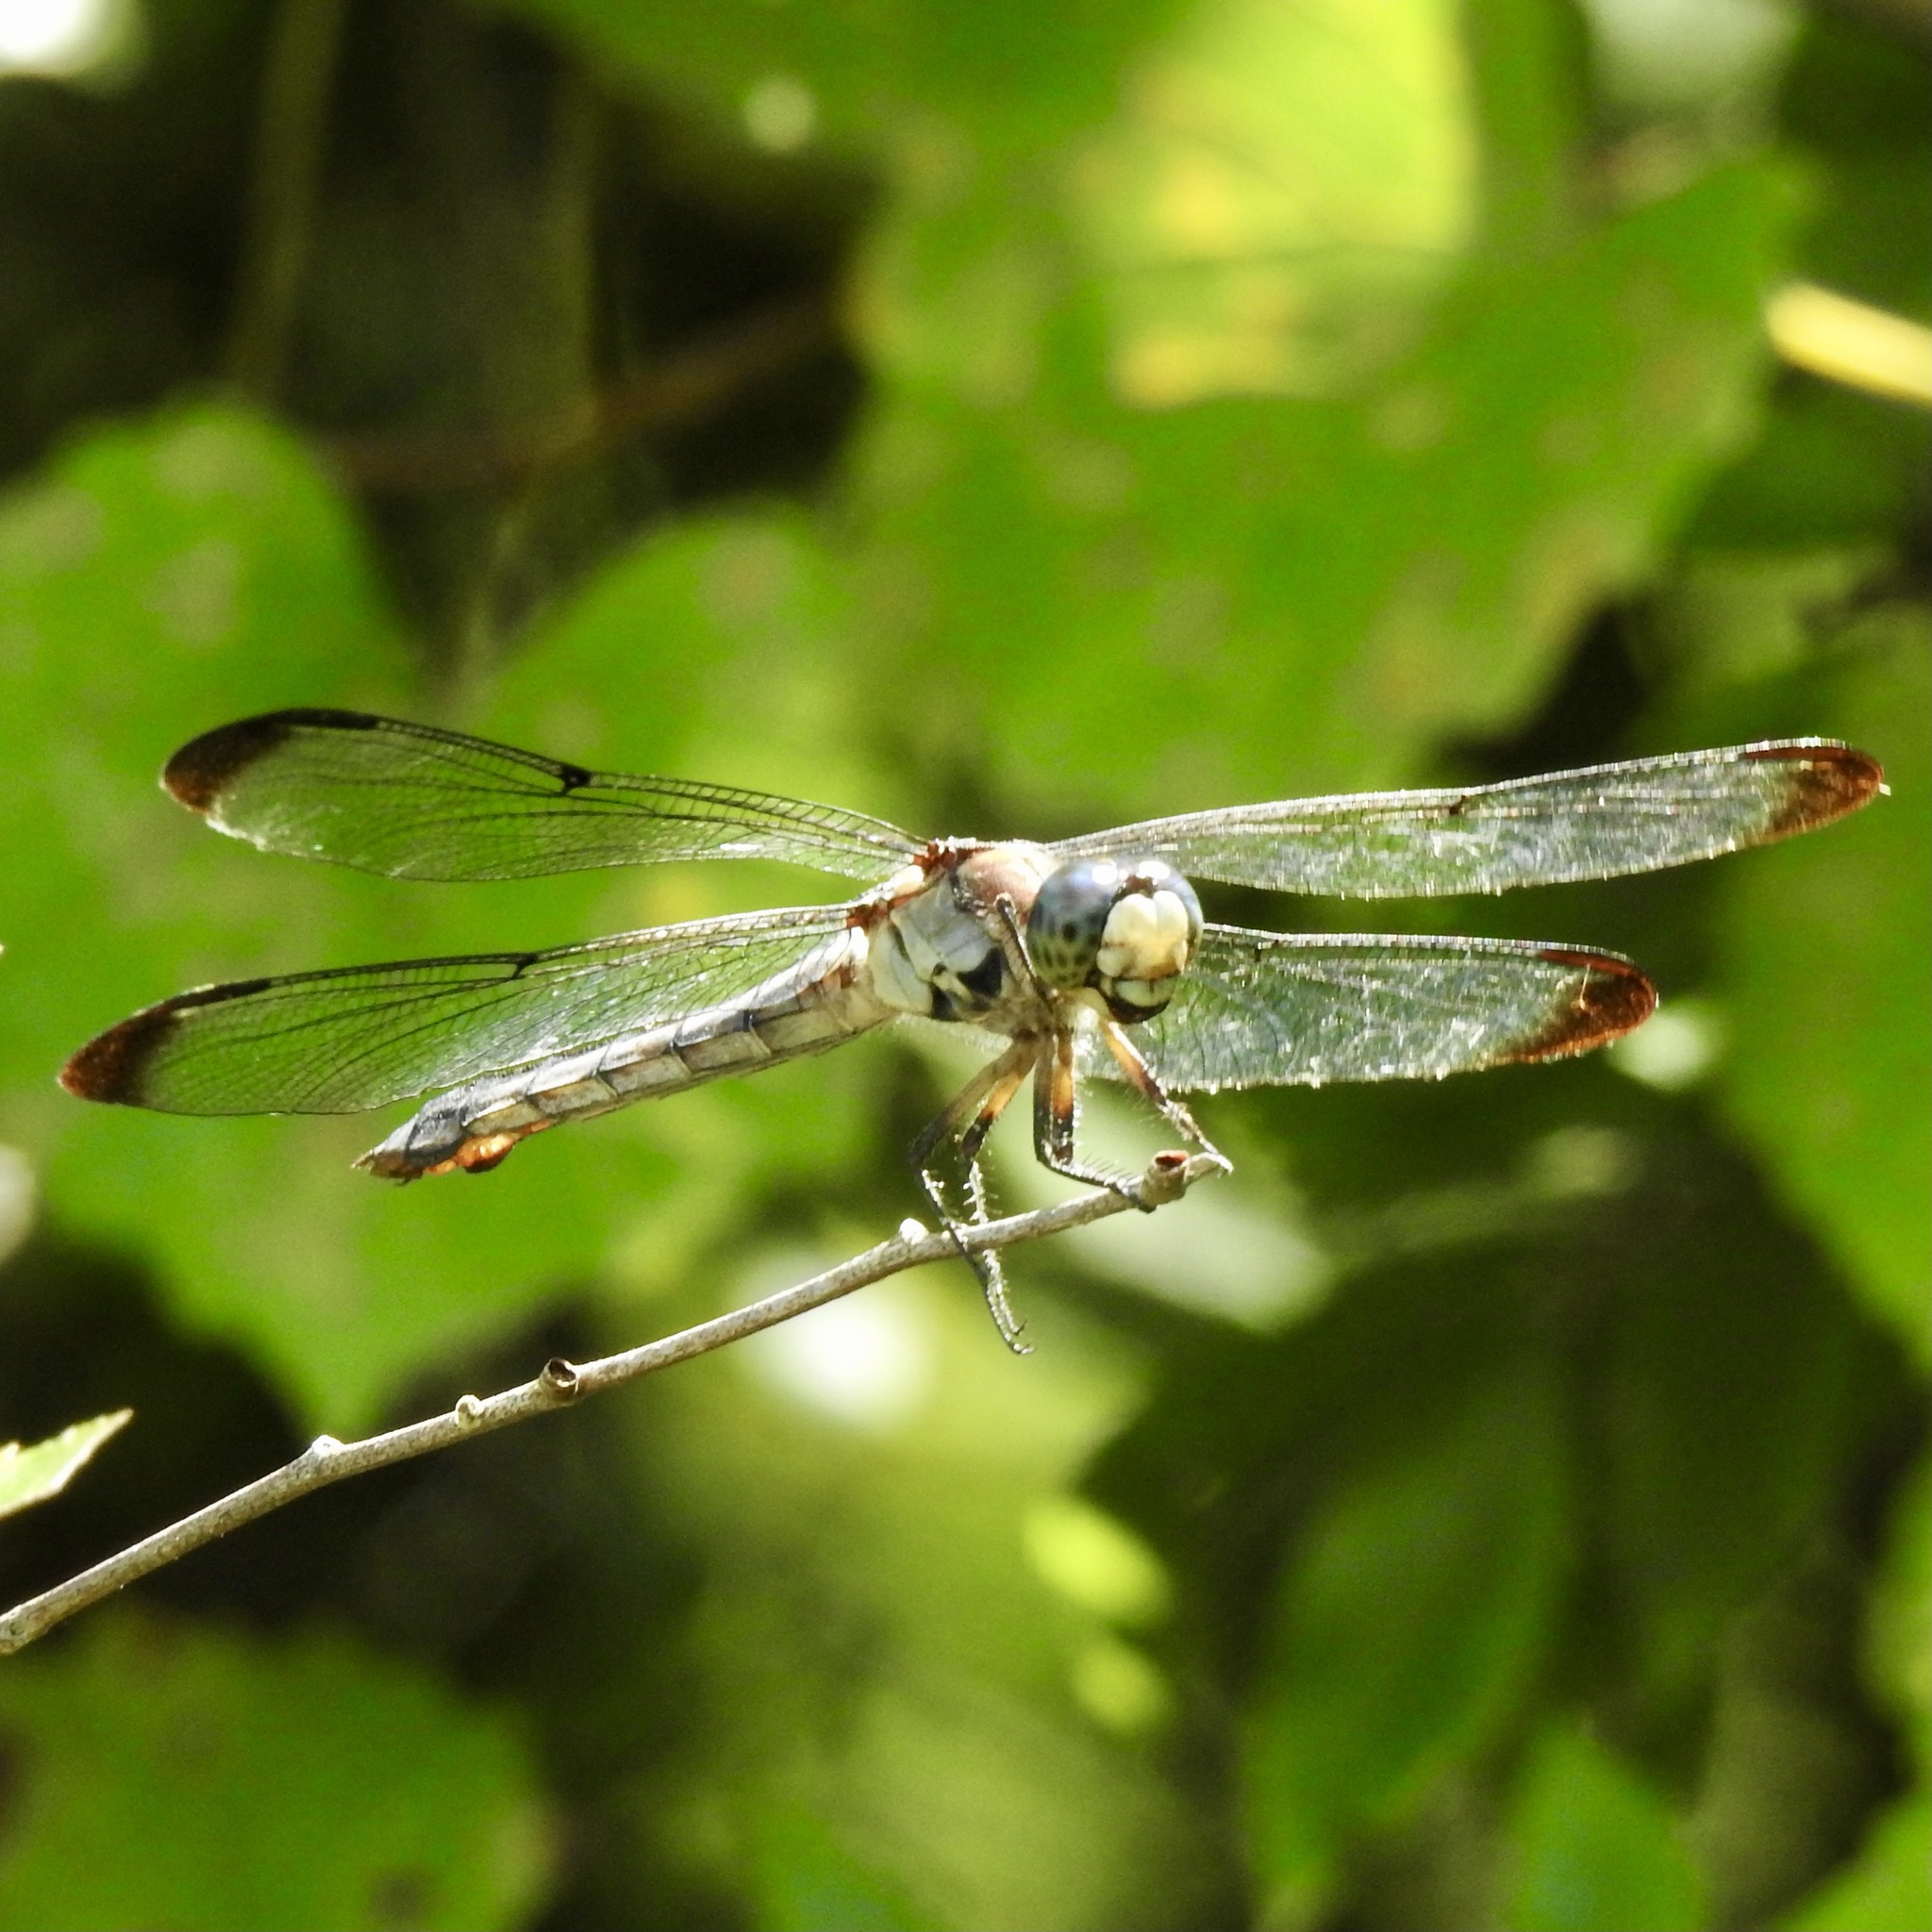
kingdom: Animalia
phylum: Arthropoda
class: Insecta
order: Odonata
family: Libellulidae
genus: Libellula
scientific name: Libellula vibrans
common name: Great blue skimmer
